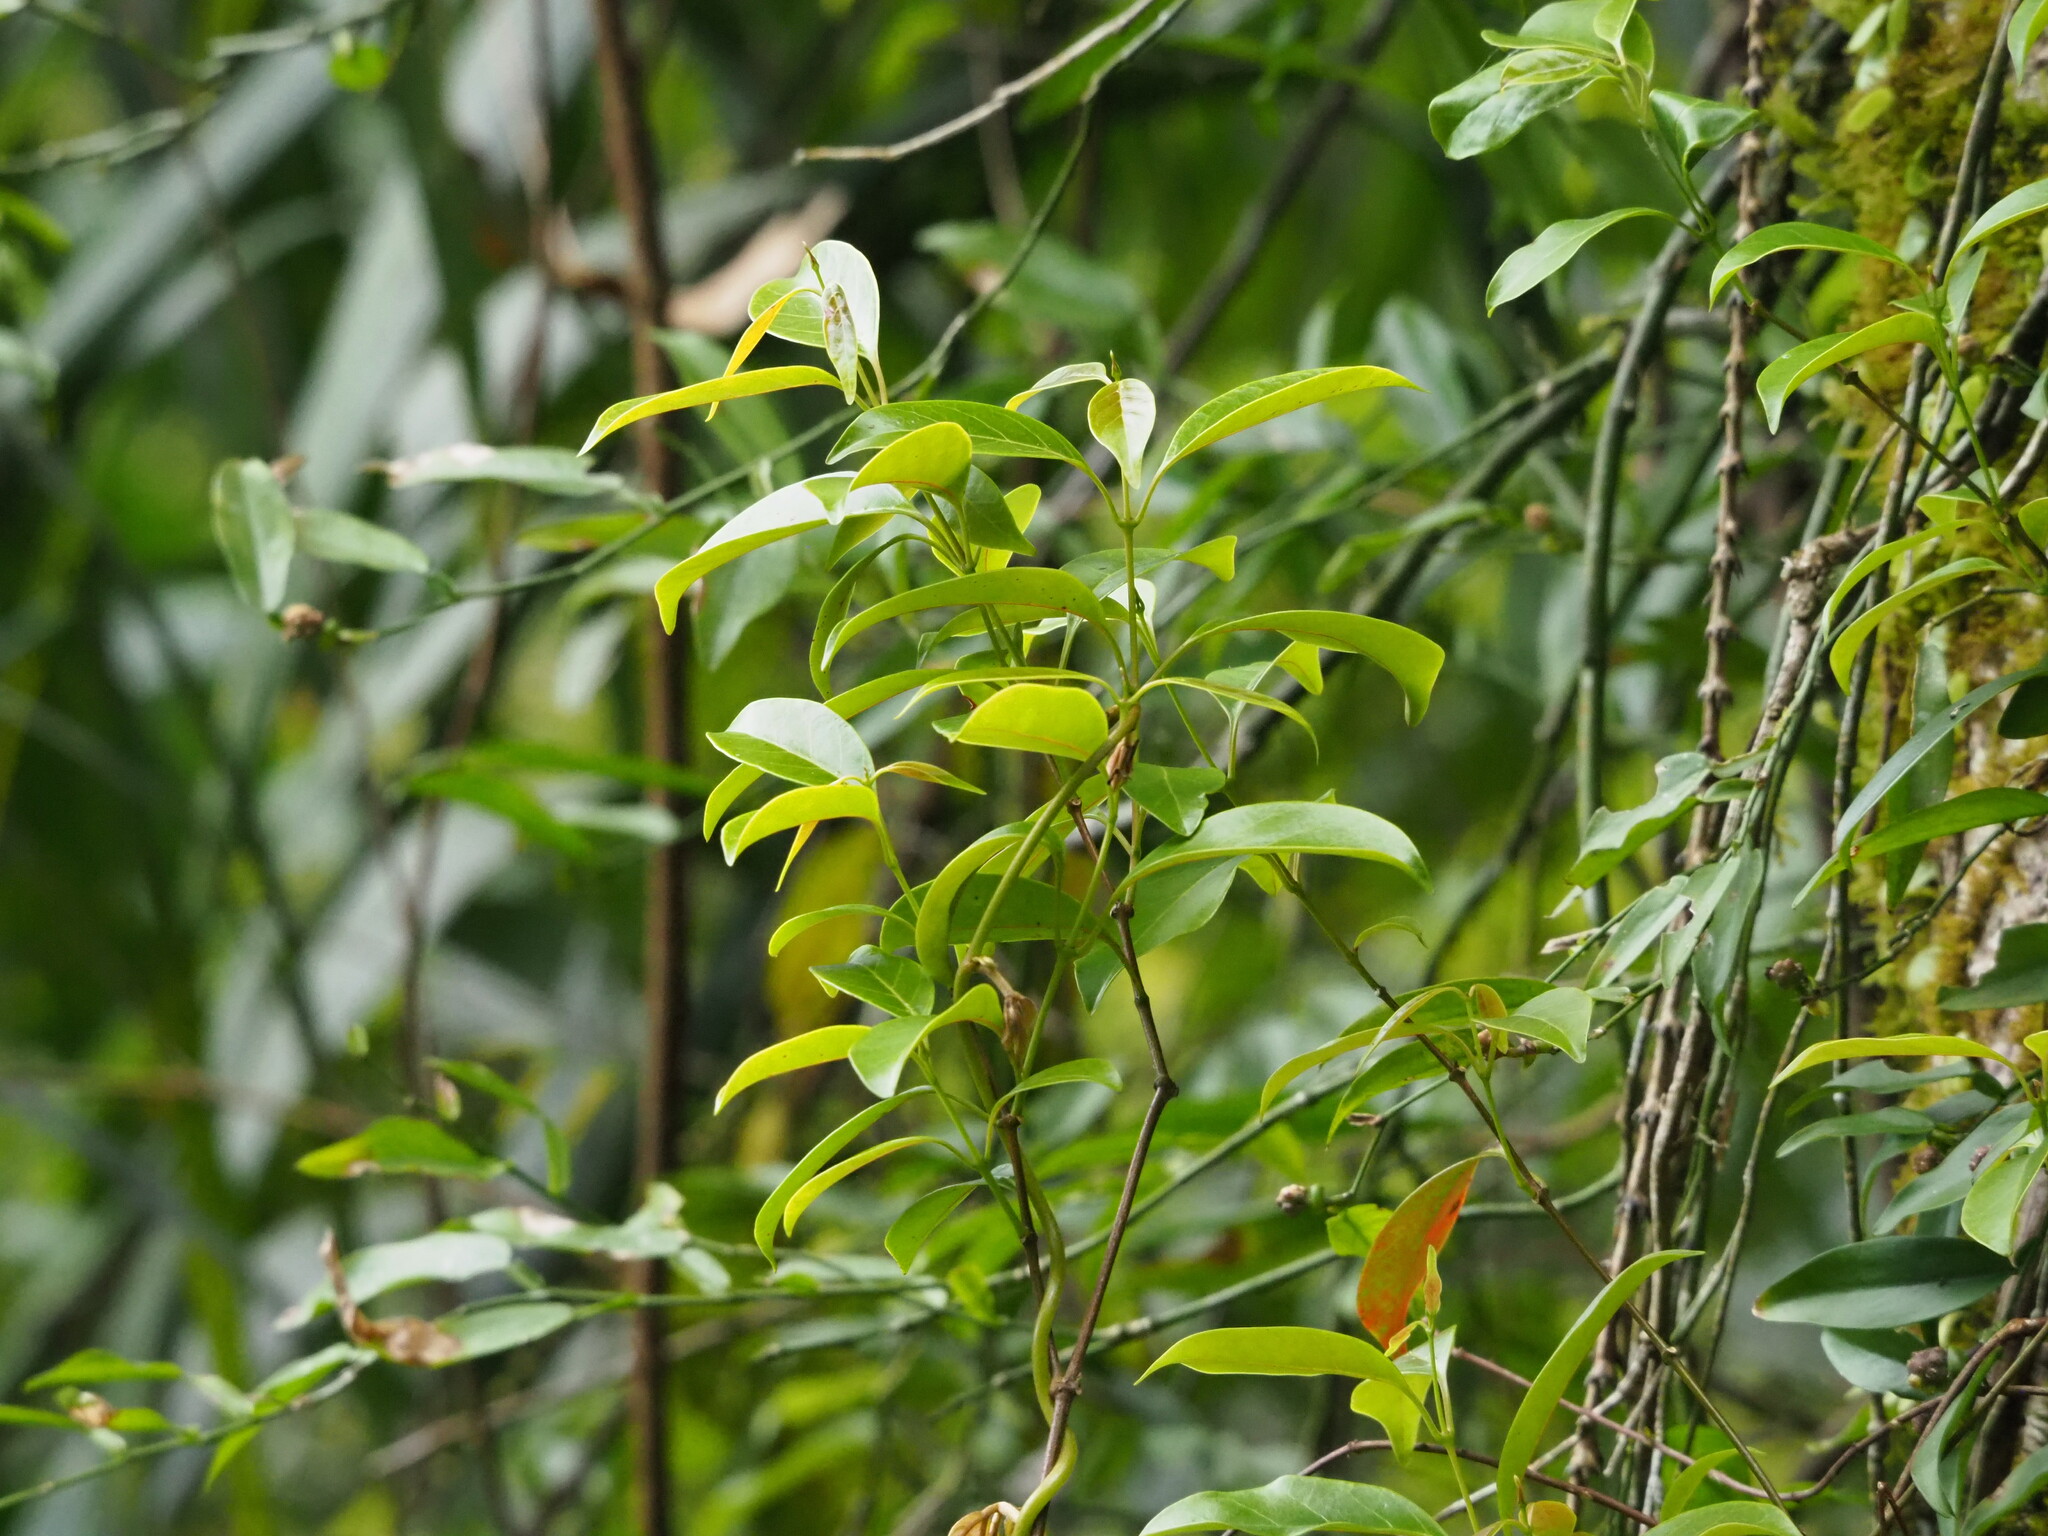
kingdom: Plantae
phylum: Tracheophyta
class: Magnoliopsida
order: Gentianales
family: Apocynaceae
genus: Urceola
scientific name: Urceola rosea
